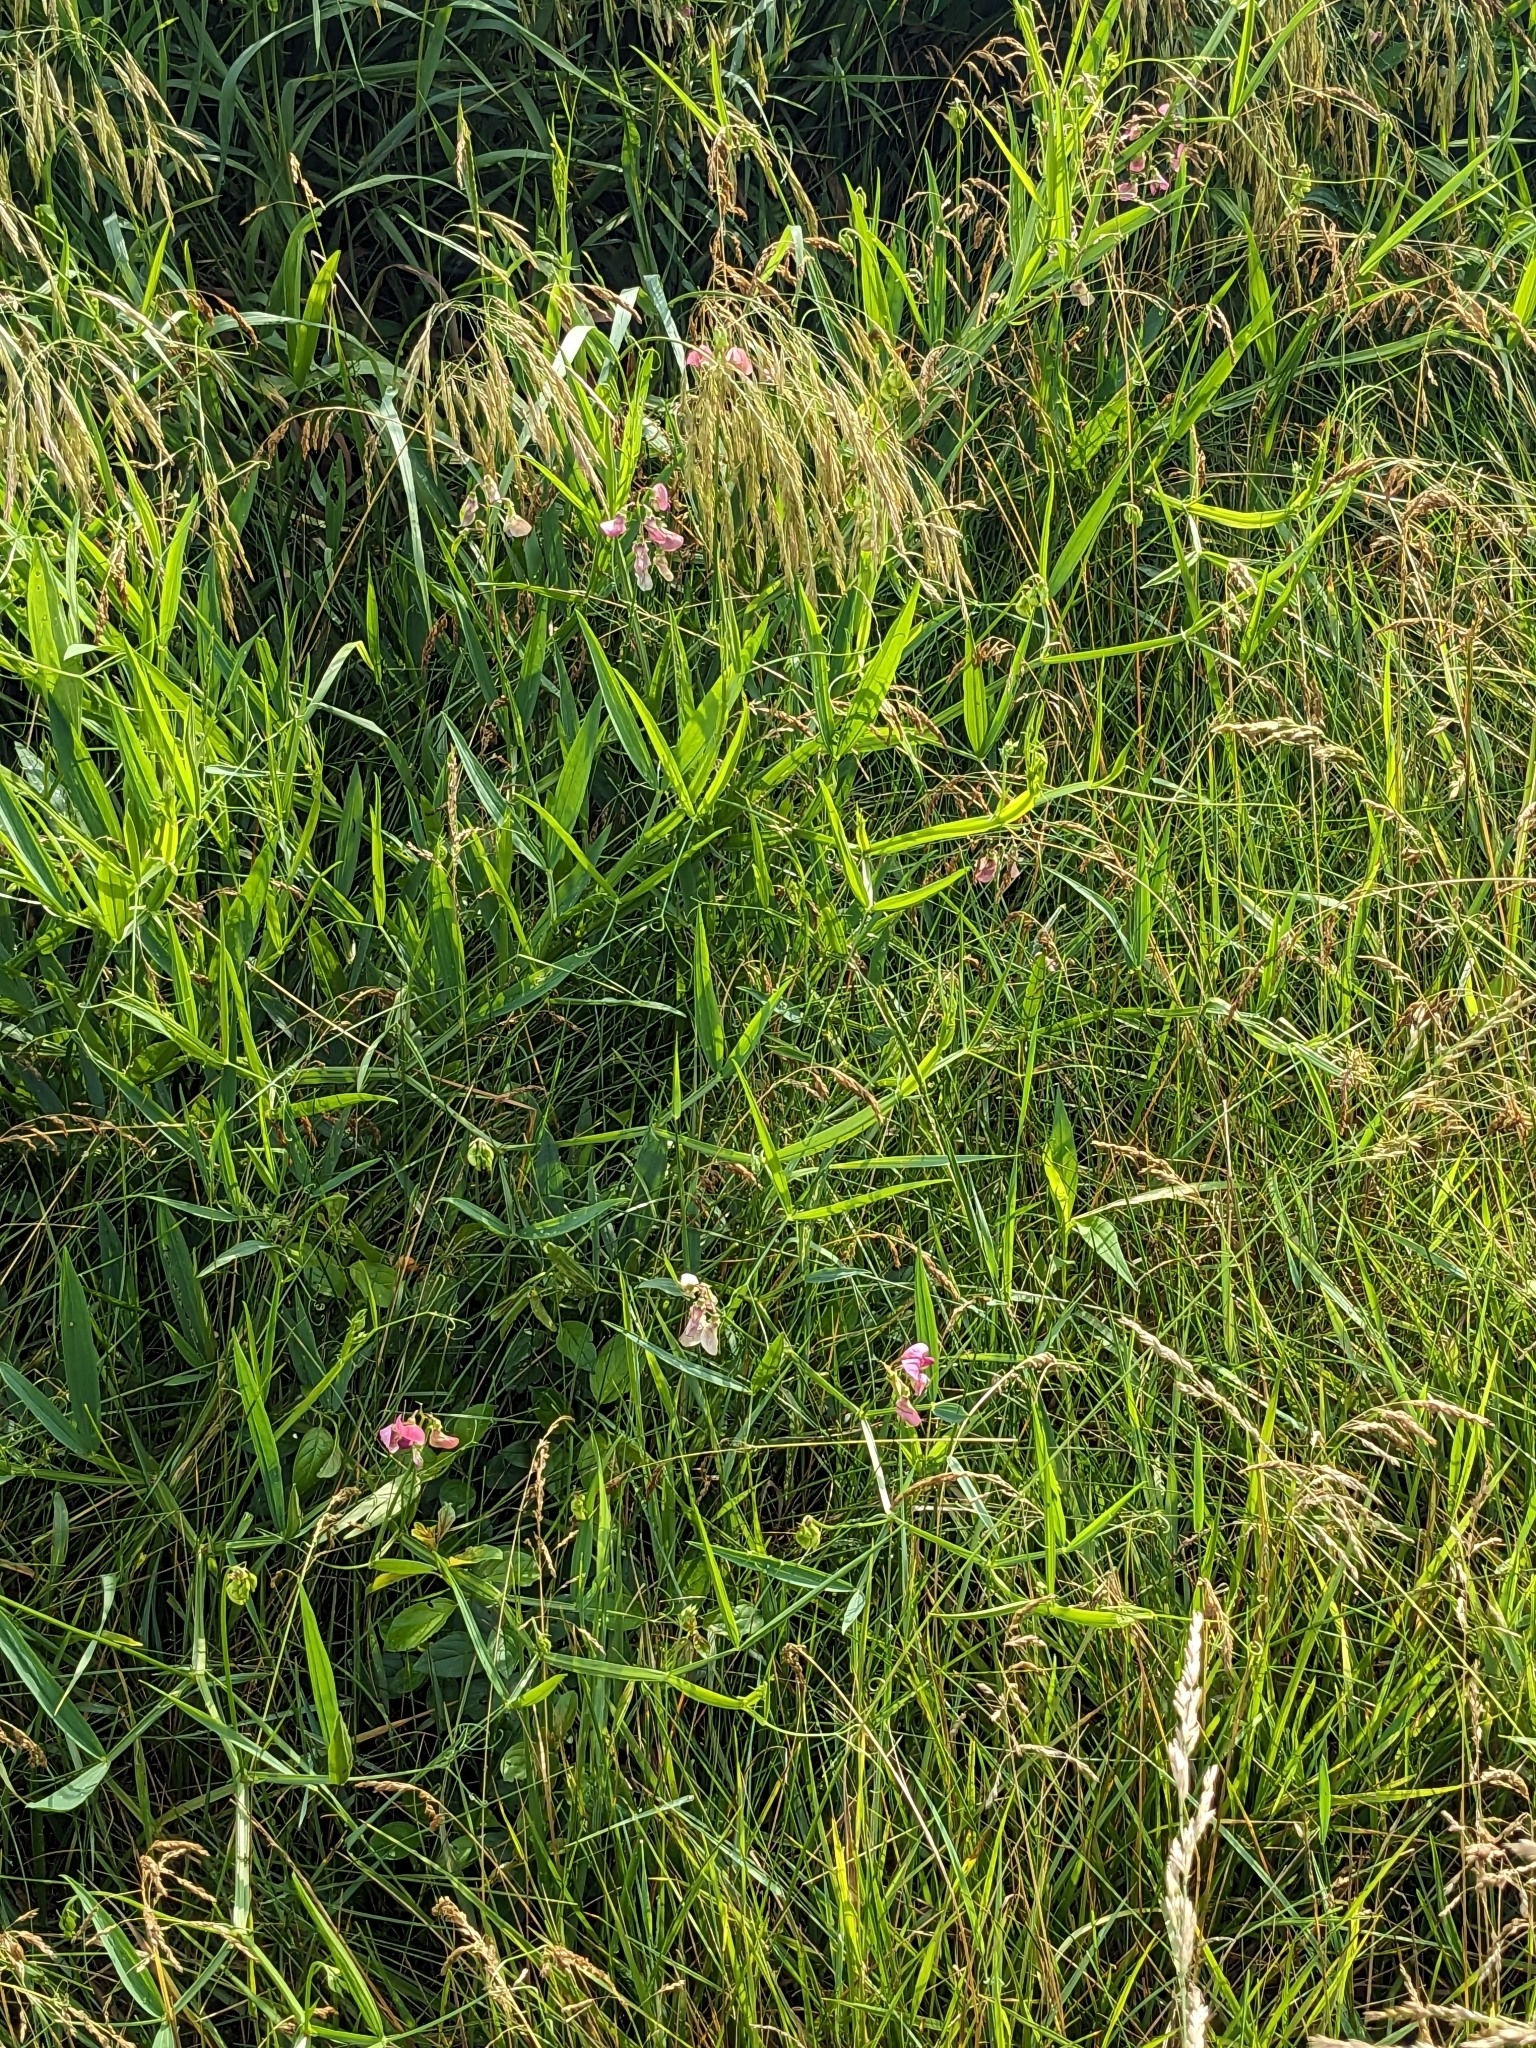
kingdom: Plantae
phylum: Tracheophyta
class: Magnoliopsida
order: Fabales
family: Fabaceae
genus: Lathyrus
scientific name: Lathyrus sylvestris
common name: Flat pea
